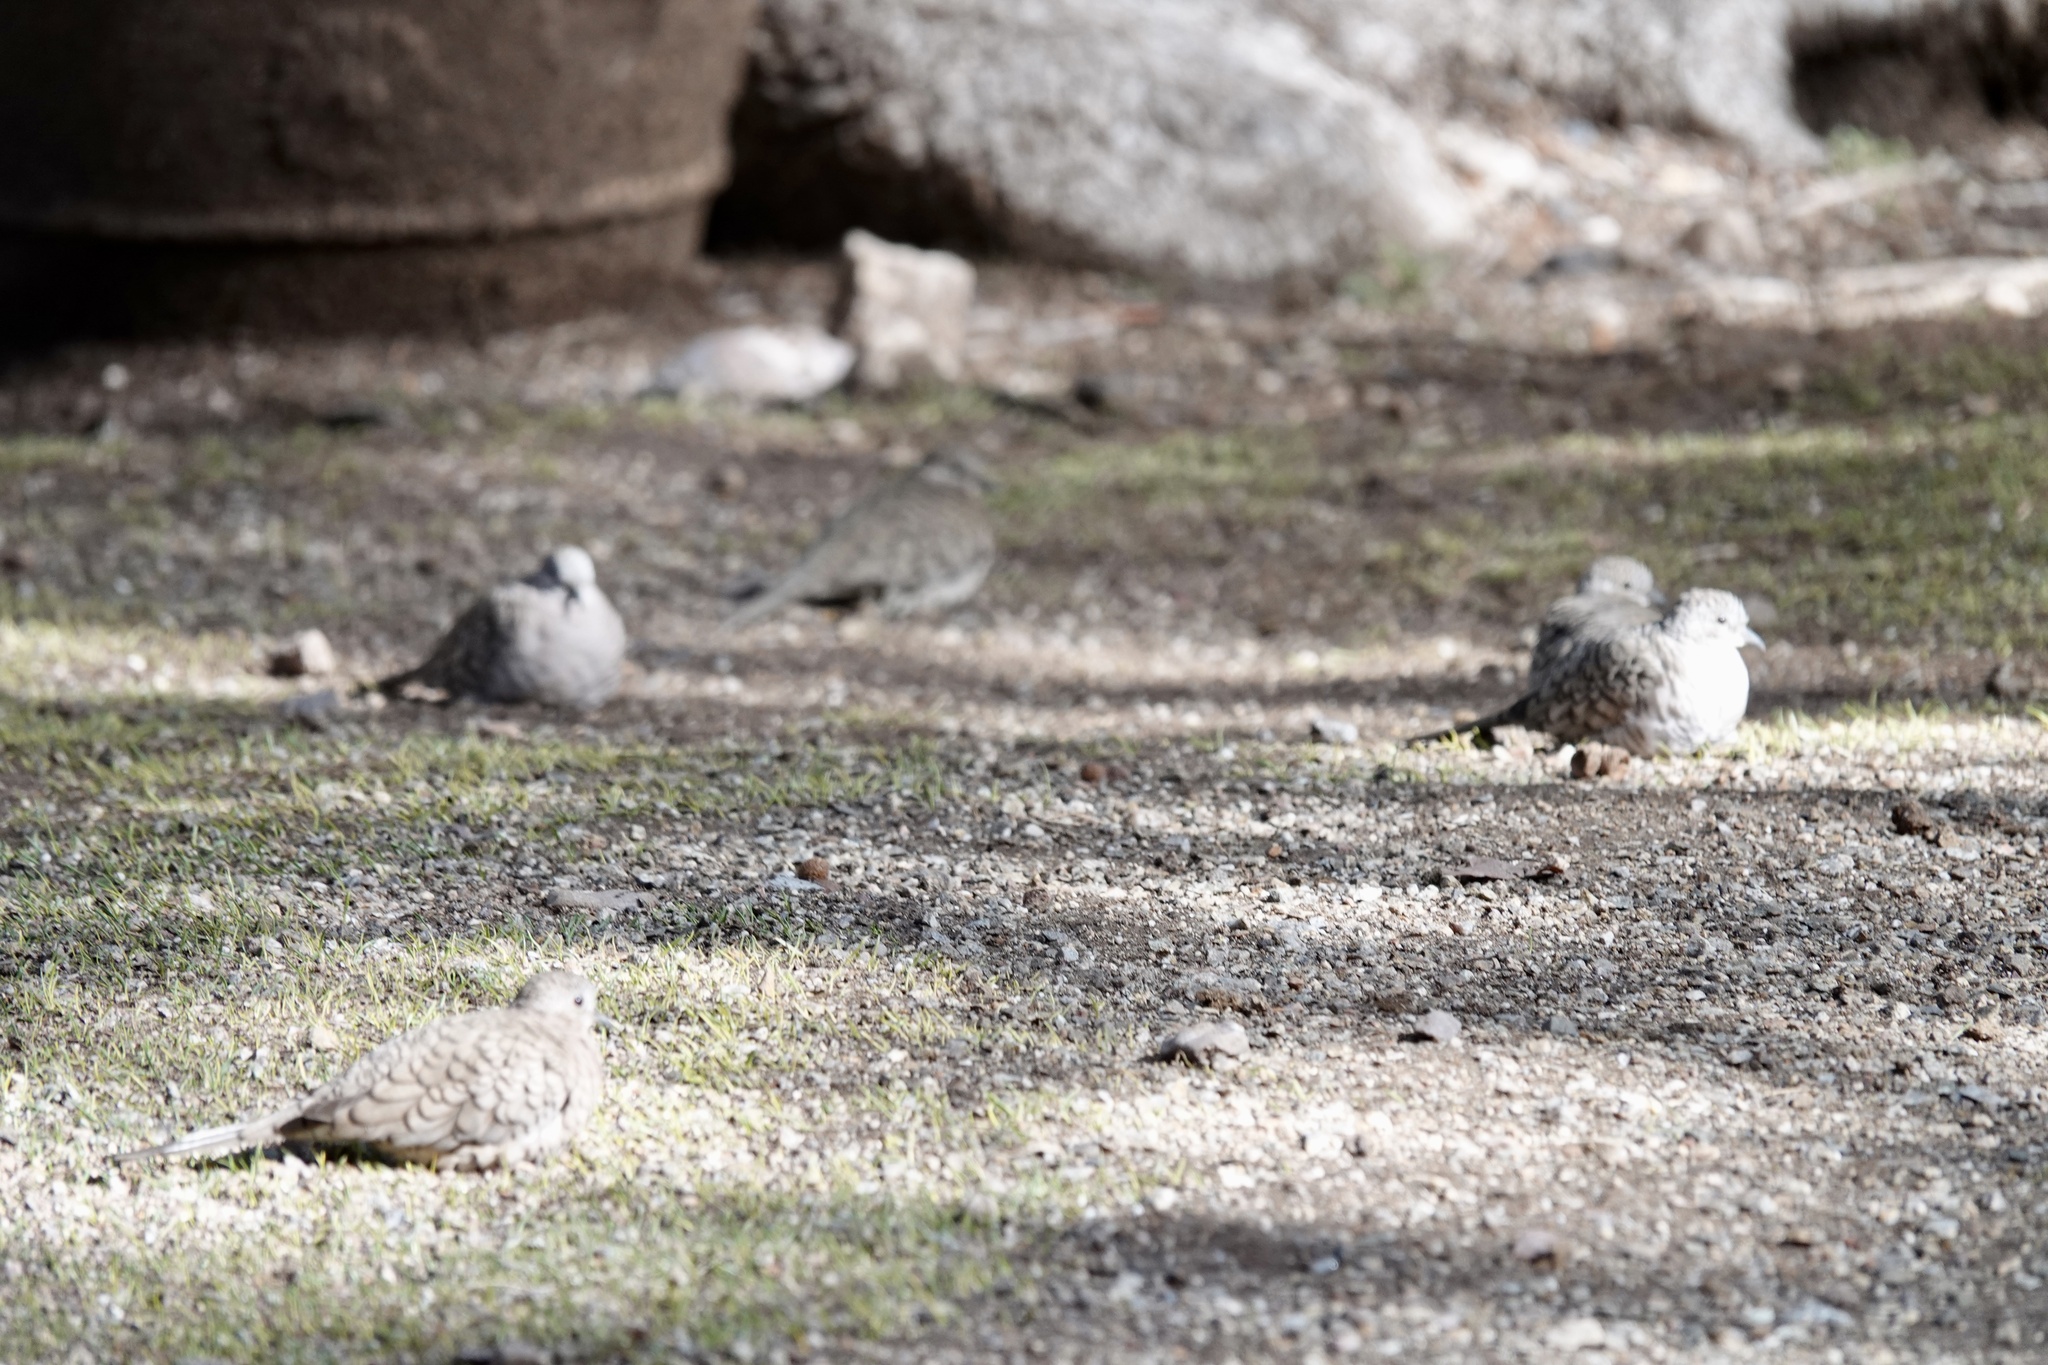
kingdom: Animalia
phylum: Chordata
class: Aves
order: Columbiformes
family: Columbidae
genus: Columbina
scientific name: Columbina inca
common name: Inca dove
